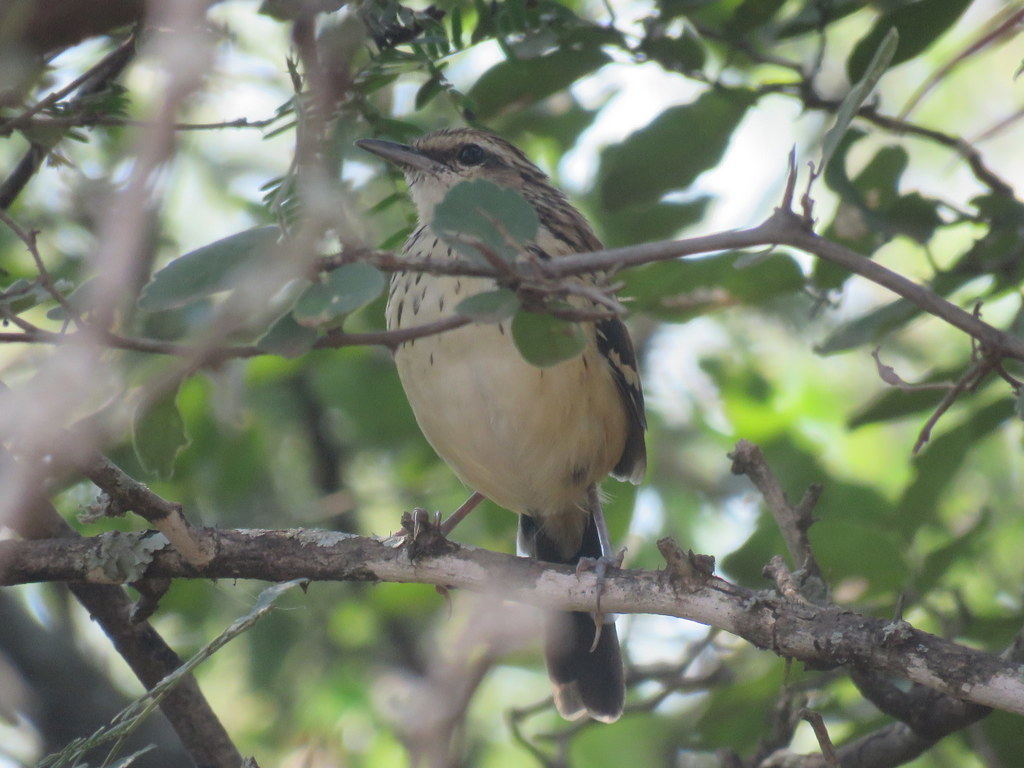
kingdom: Animalia
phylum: Chordata
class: Aves
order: Passeriformes
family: Thamnophilidae
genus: Myrmorchilus
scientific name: Myrmorchilus strigilatus
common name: Stripe-backed antbird
